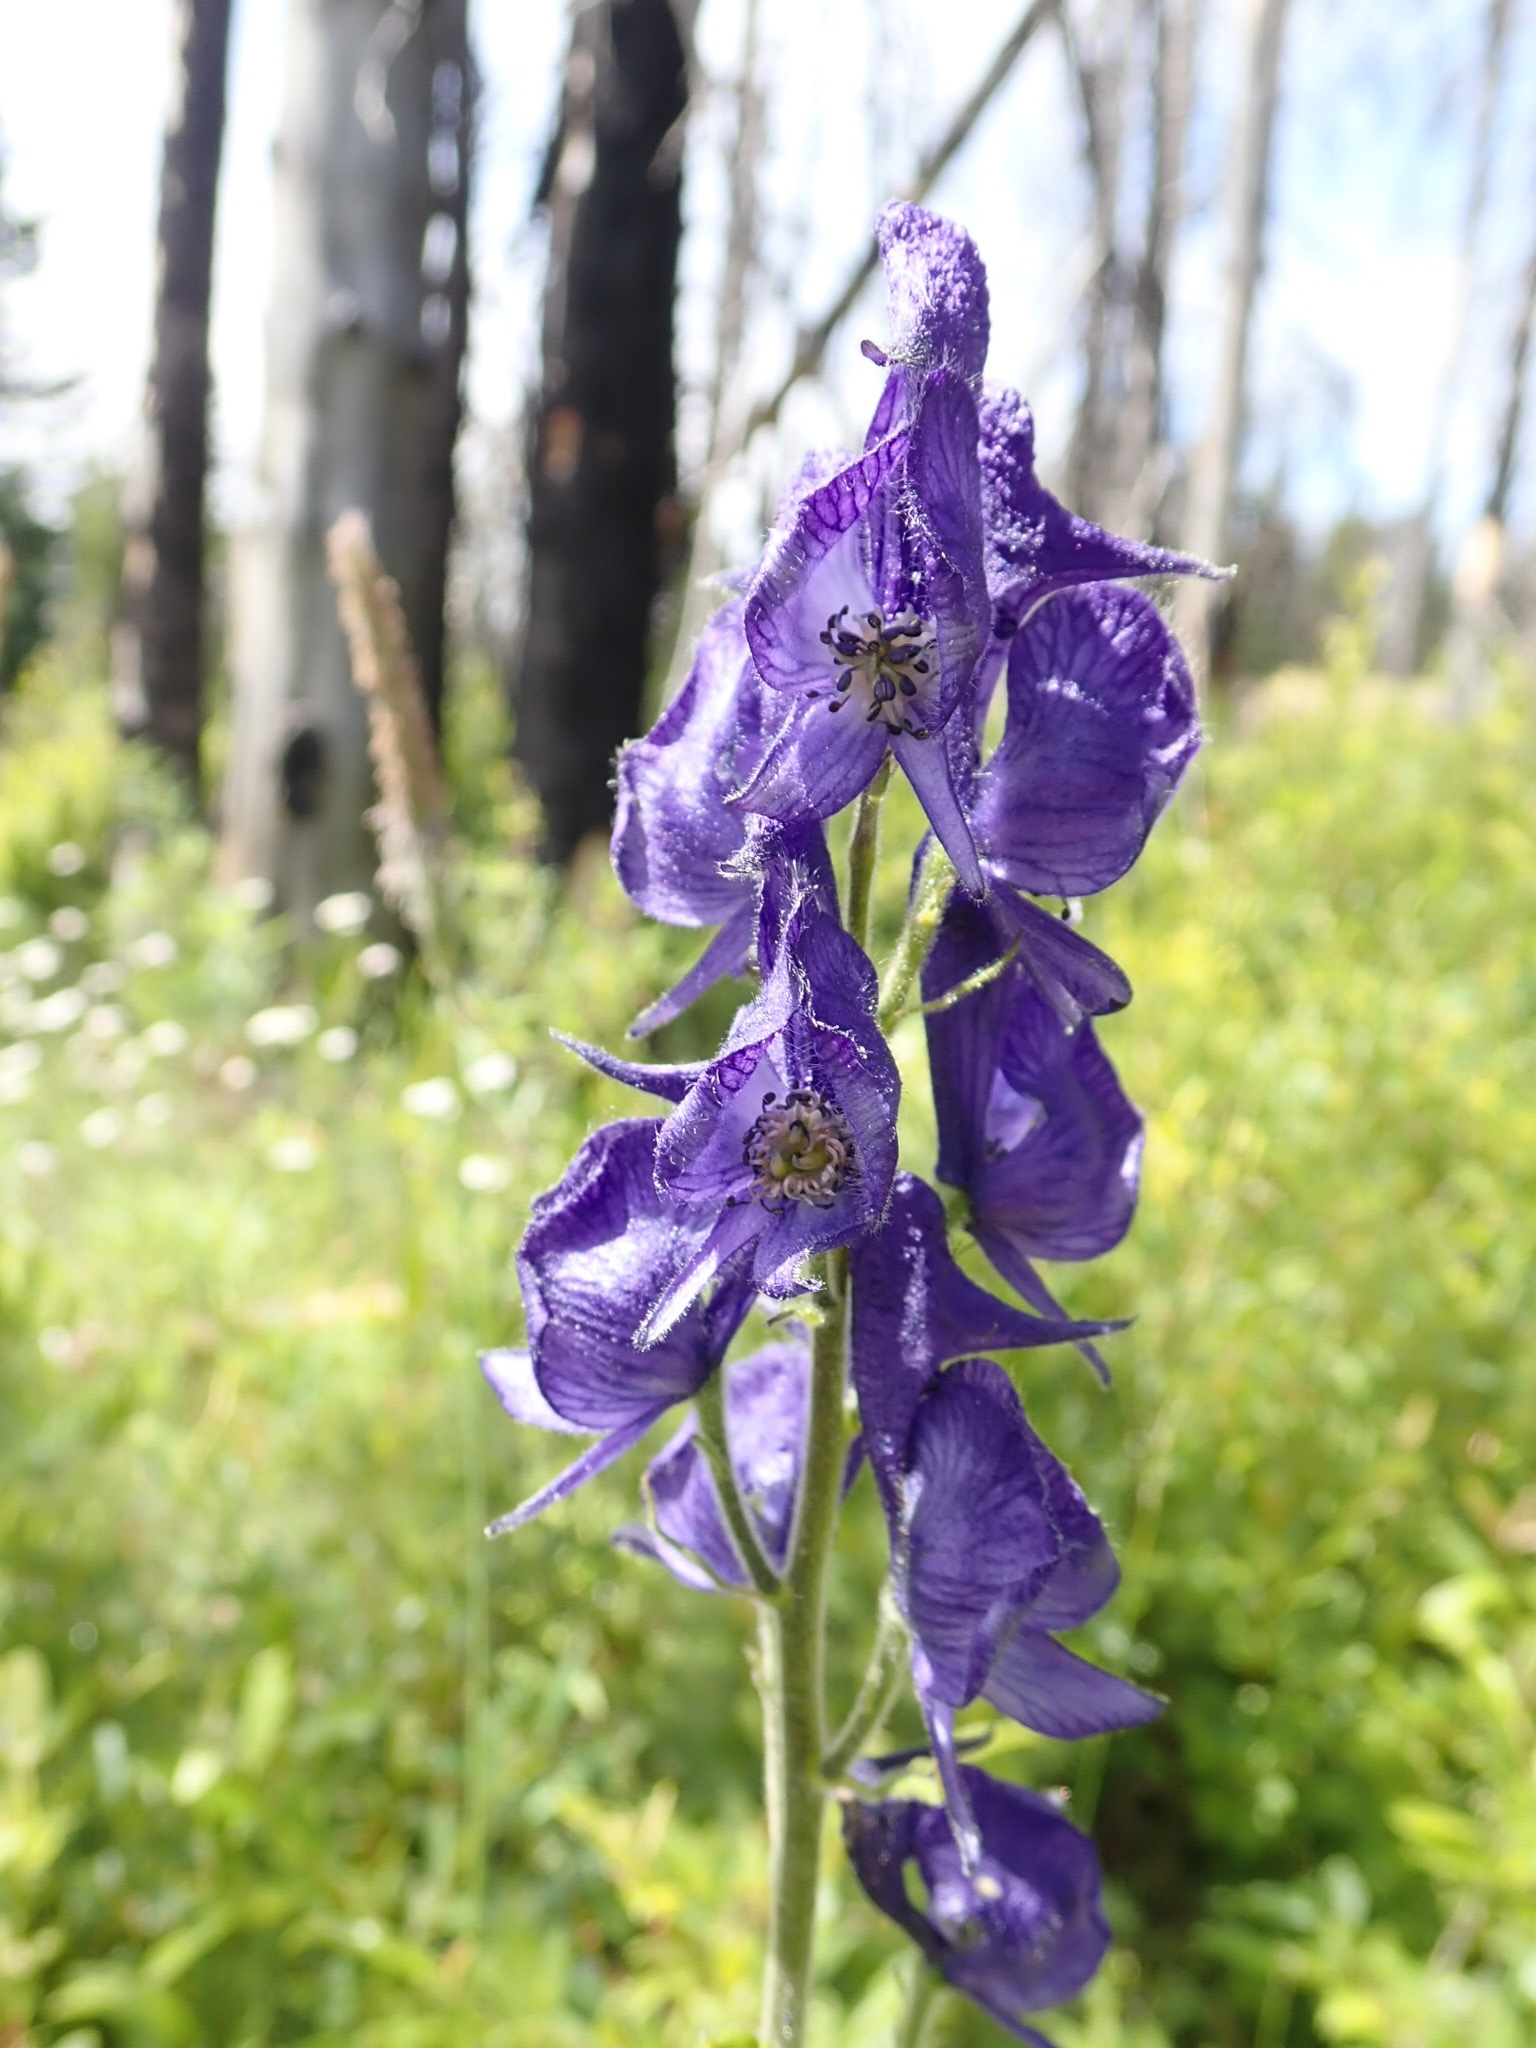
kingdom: Plantae
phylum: Tracheophyta
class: Magnoliopsida
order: Ranunculales
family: Ranunculaceae
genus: Aconitum
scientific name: Aconitum columbianum
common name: Columbia aconite
